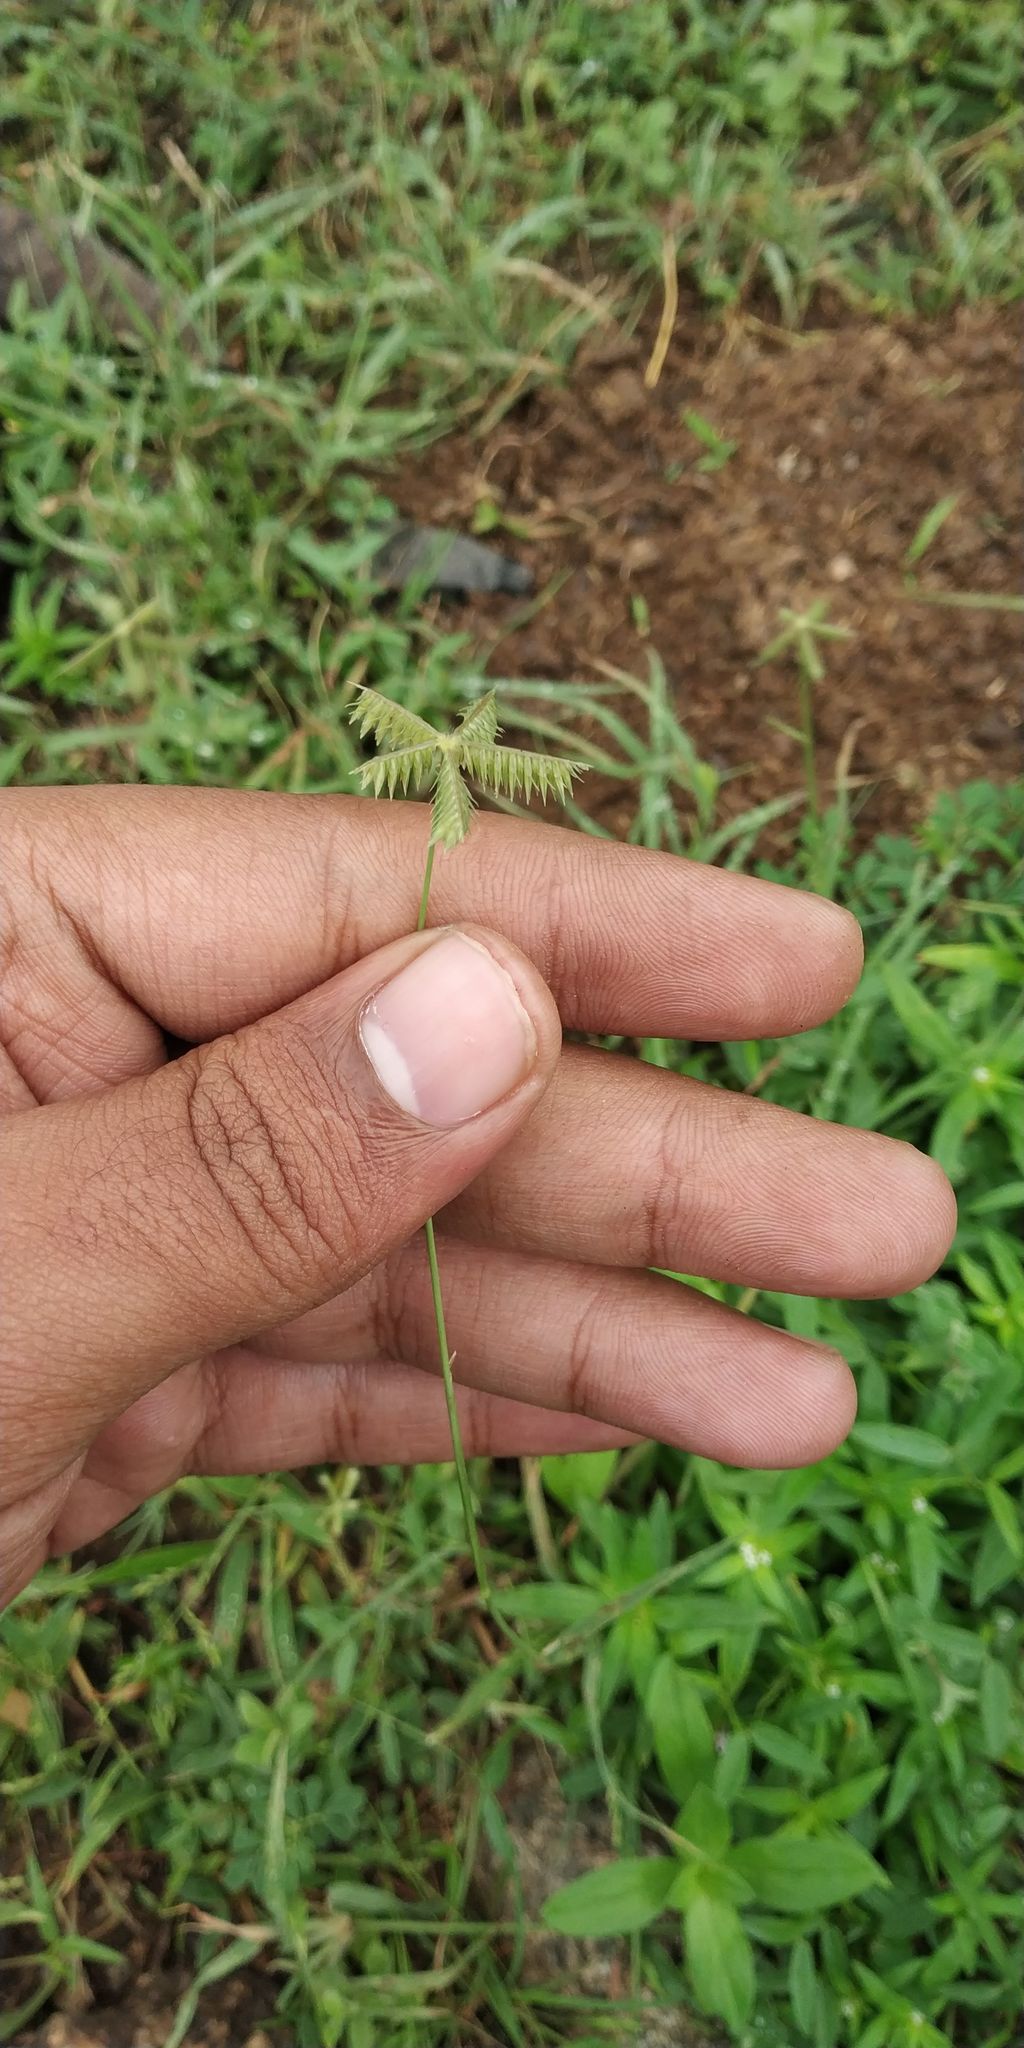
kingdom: Plantae
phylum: Tracheophyta
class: Liliopsida
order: Poales
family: Poaceae
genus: Dactyloctenium
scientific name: Dactyloctenium scindicum
